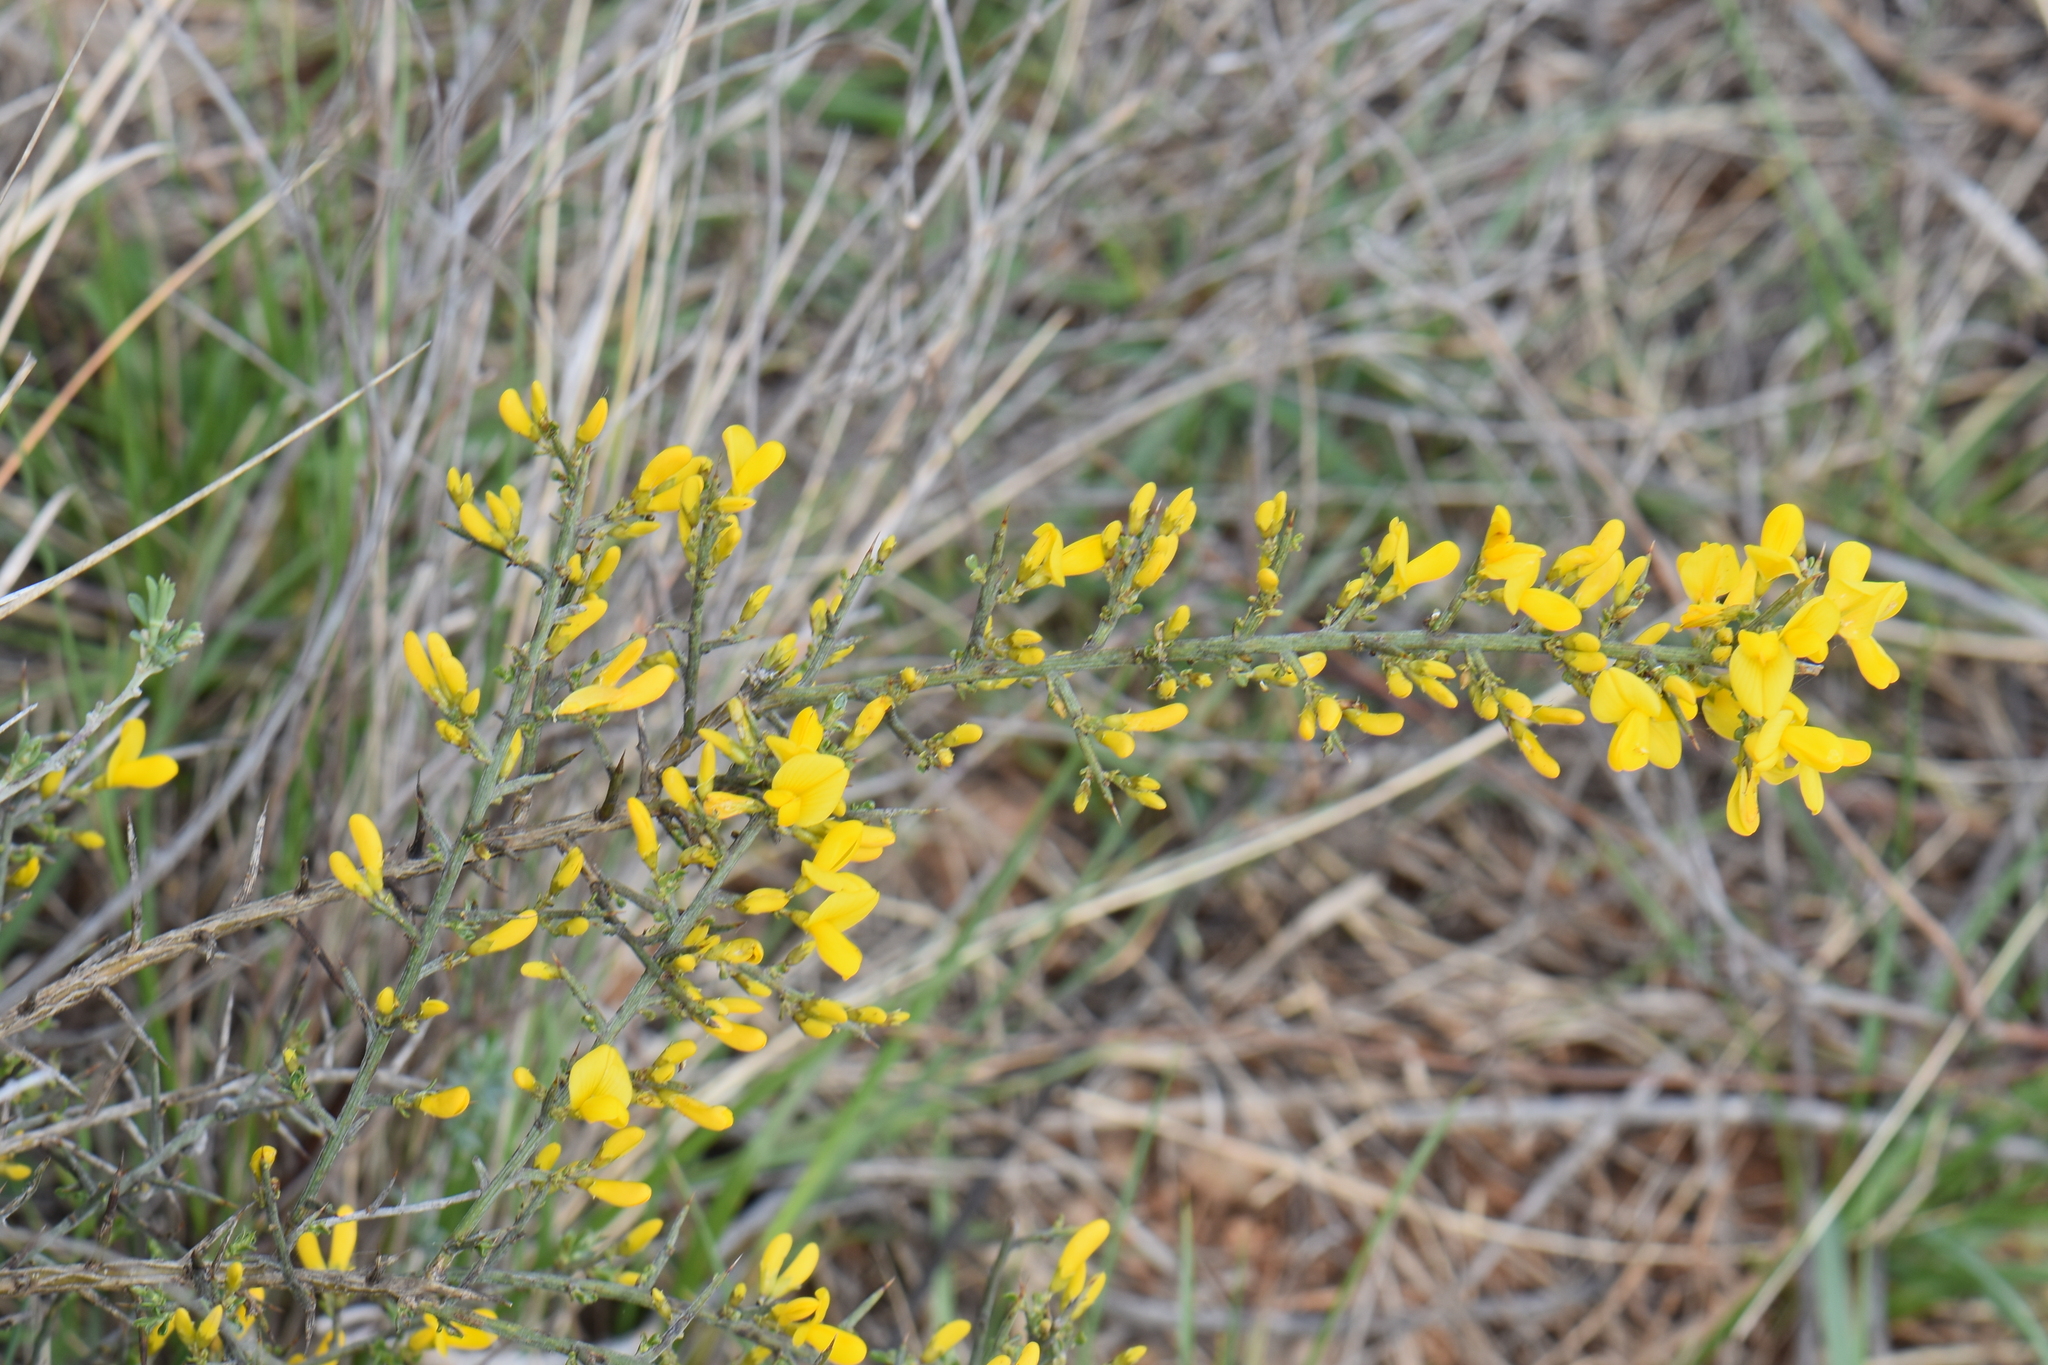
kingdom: Plantae
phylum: Tracheophyta
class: Magnoliopsida
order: Fabales
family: Fabaceae
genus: Genista
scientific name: Genista scorpius
